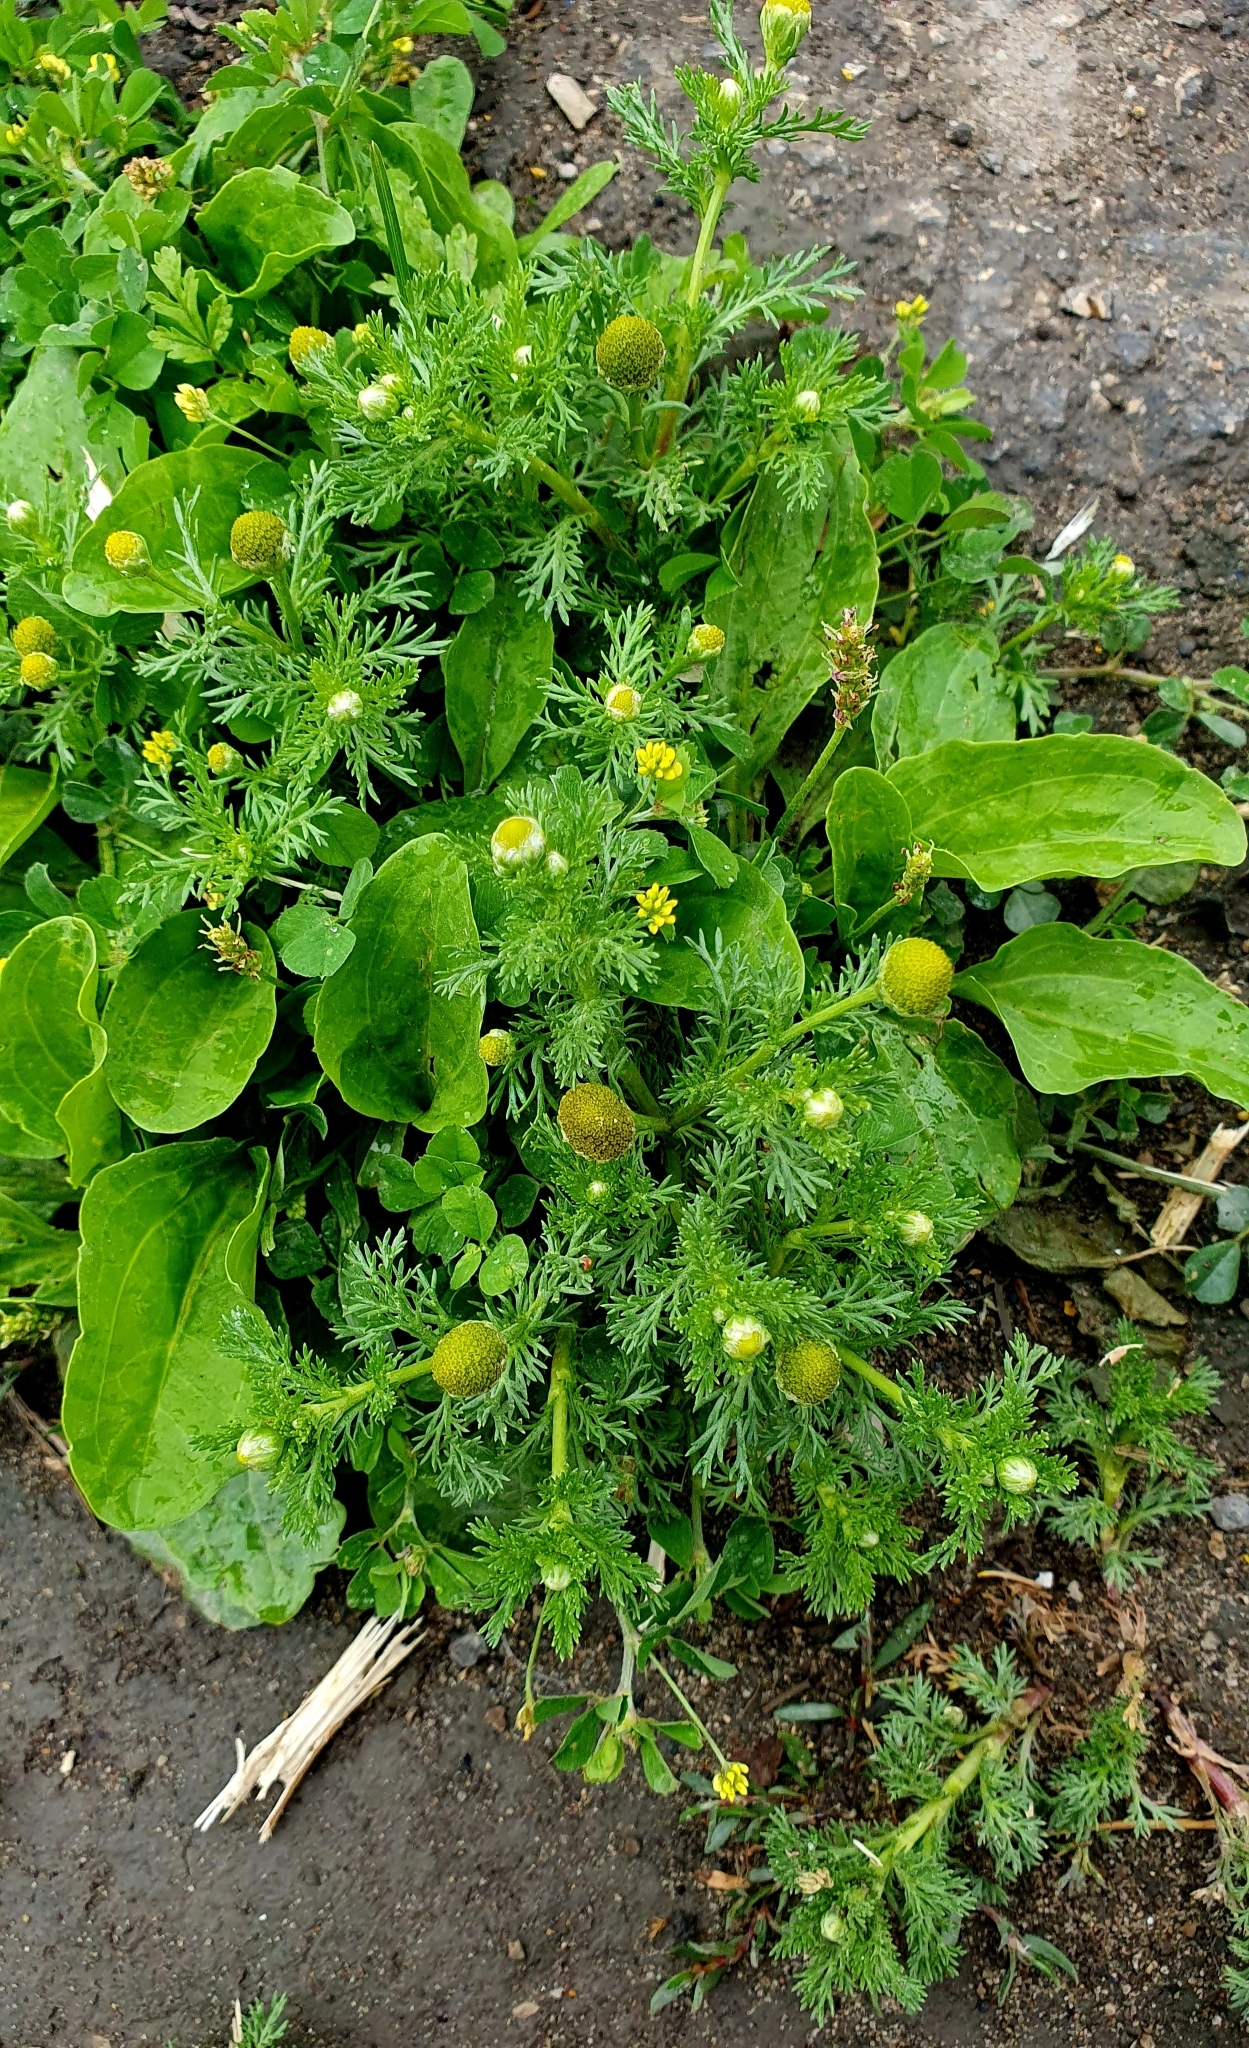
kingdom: Plantae
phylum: Tracheophyta
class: Magnoliopsida
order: Asterales
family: Asteraceae
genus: Matricaria
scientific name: Matricaria discoidea
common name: Disc mayweed
